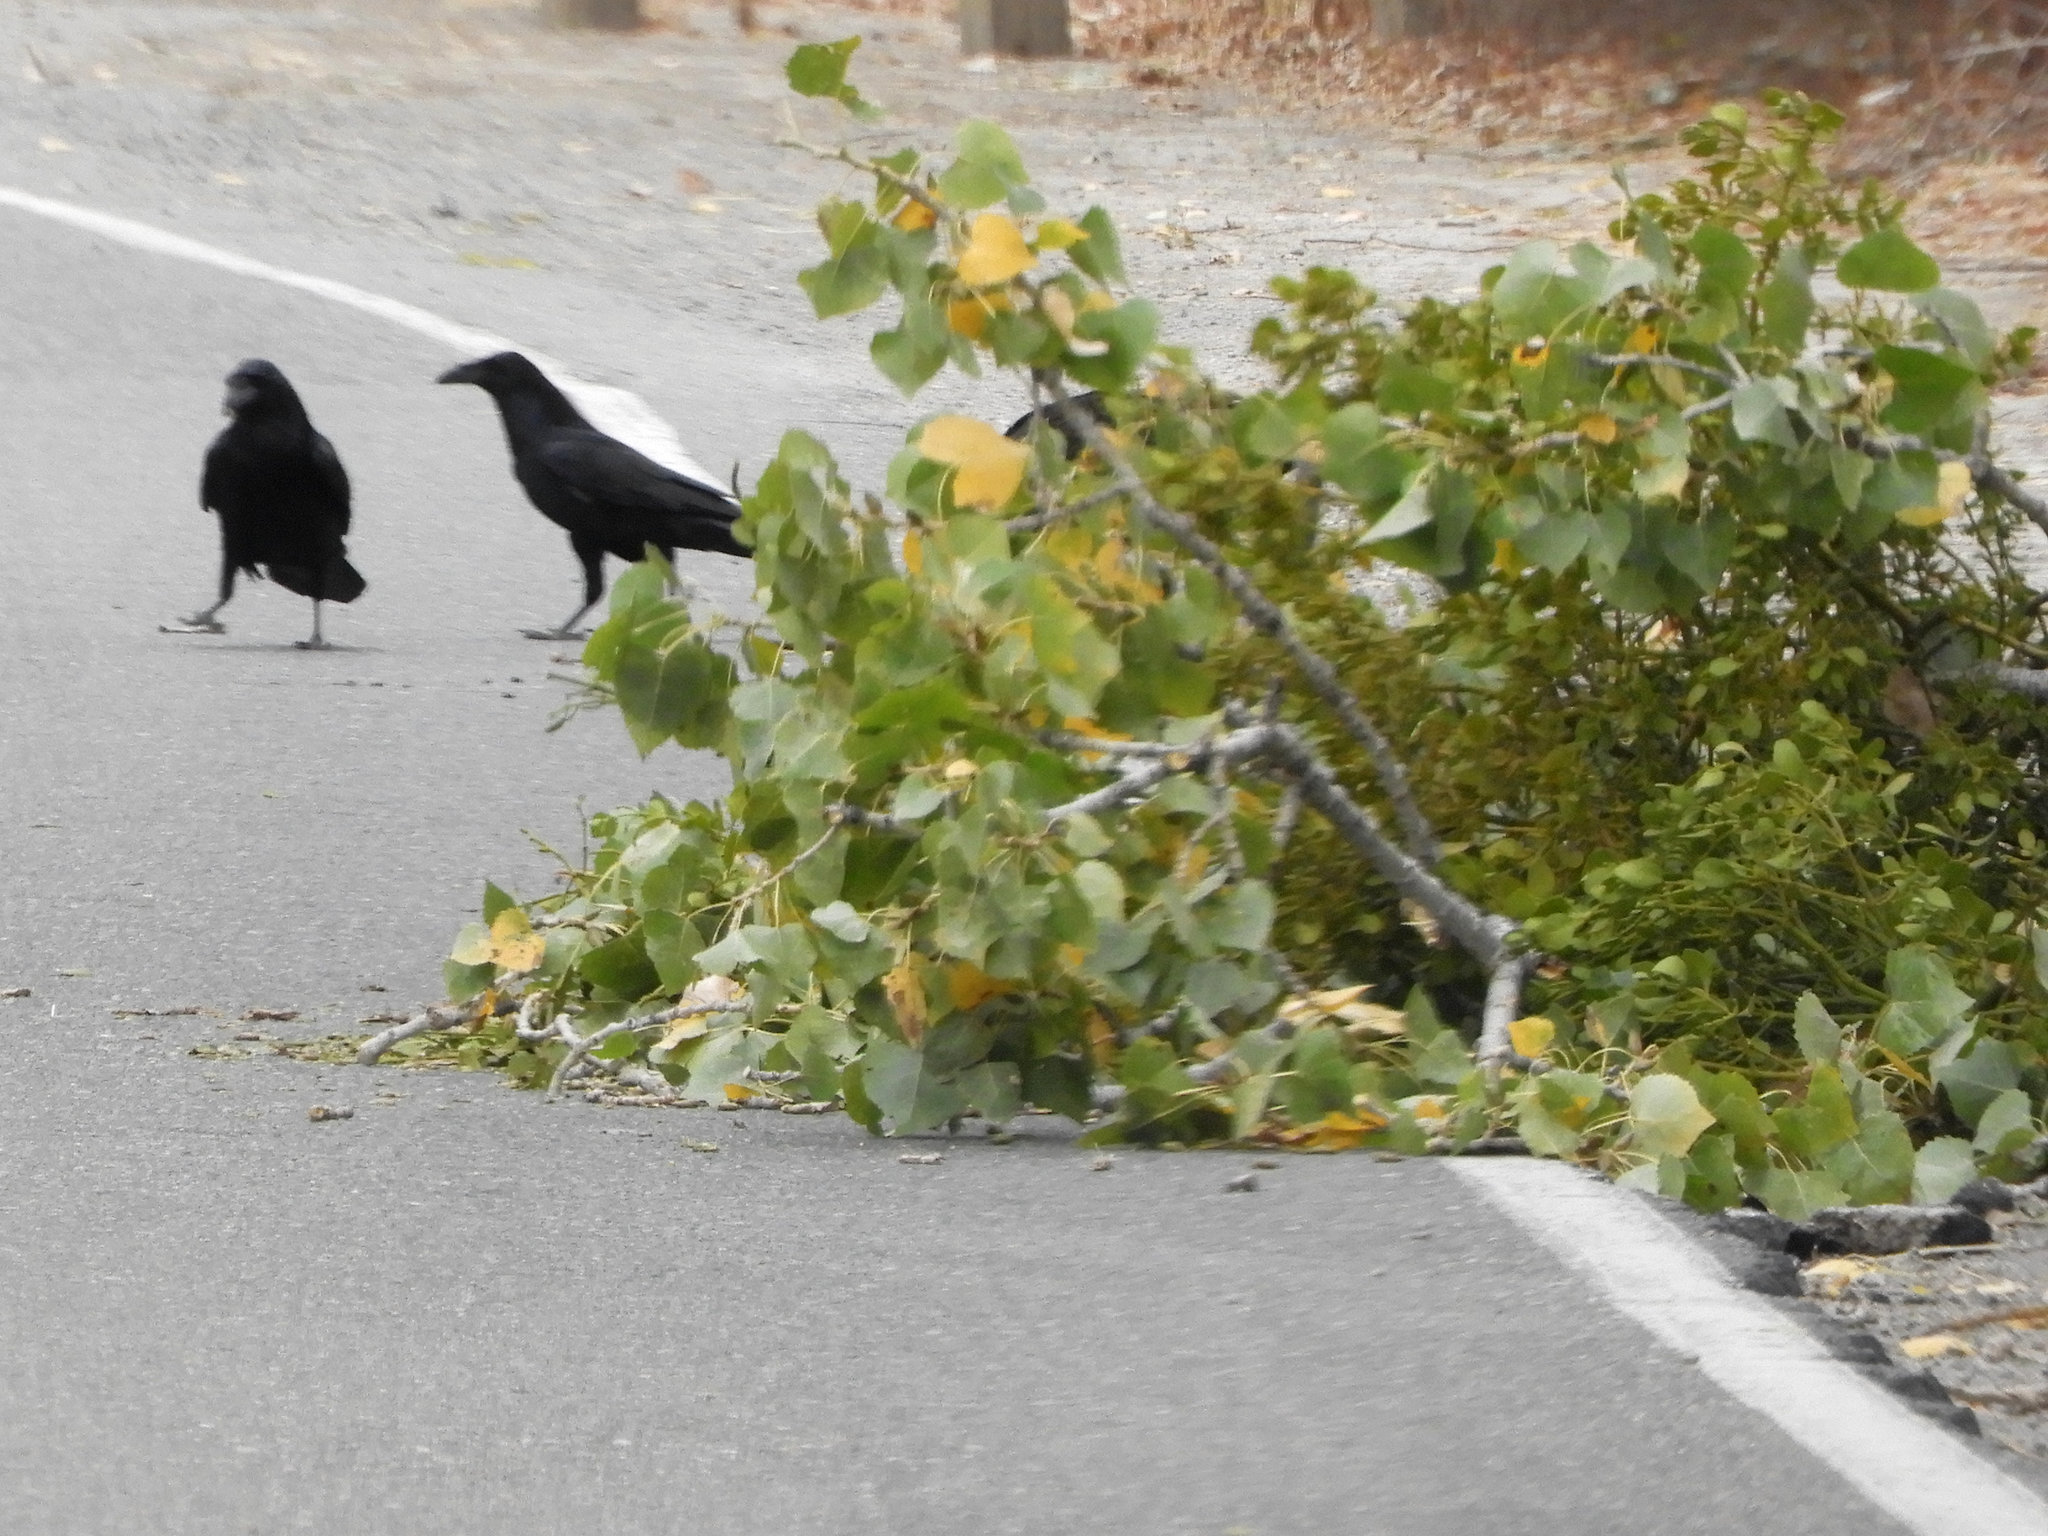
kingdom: Animalia
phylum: Chordata
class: Aves
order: Passeriformes
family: Corvidae
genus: Corvus
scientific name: Corvus brachyrhynchos
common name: American crow
